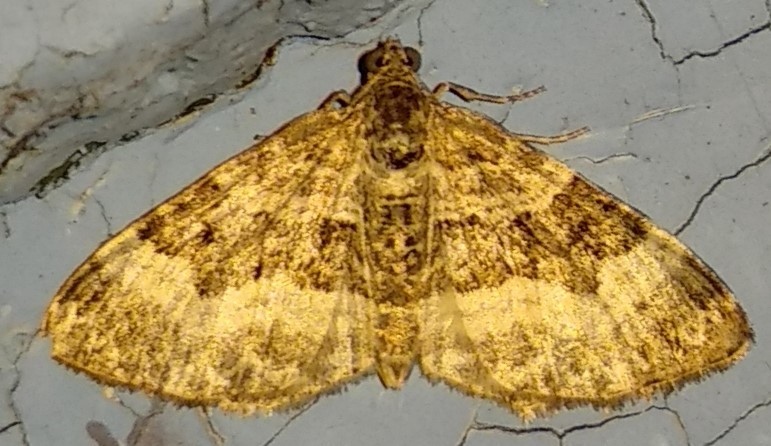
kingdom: Animalia
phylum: Arthropoda
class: Insecta
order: Lepidoptera
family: Geometridae
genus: Epirrhoe
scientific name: Epirrhoe alternata
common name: Common carpet
